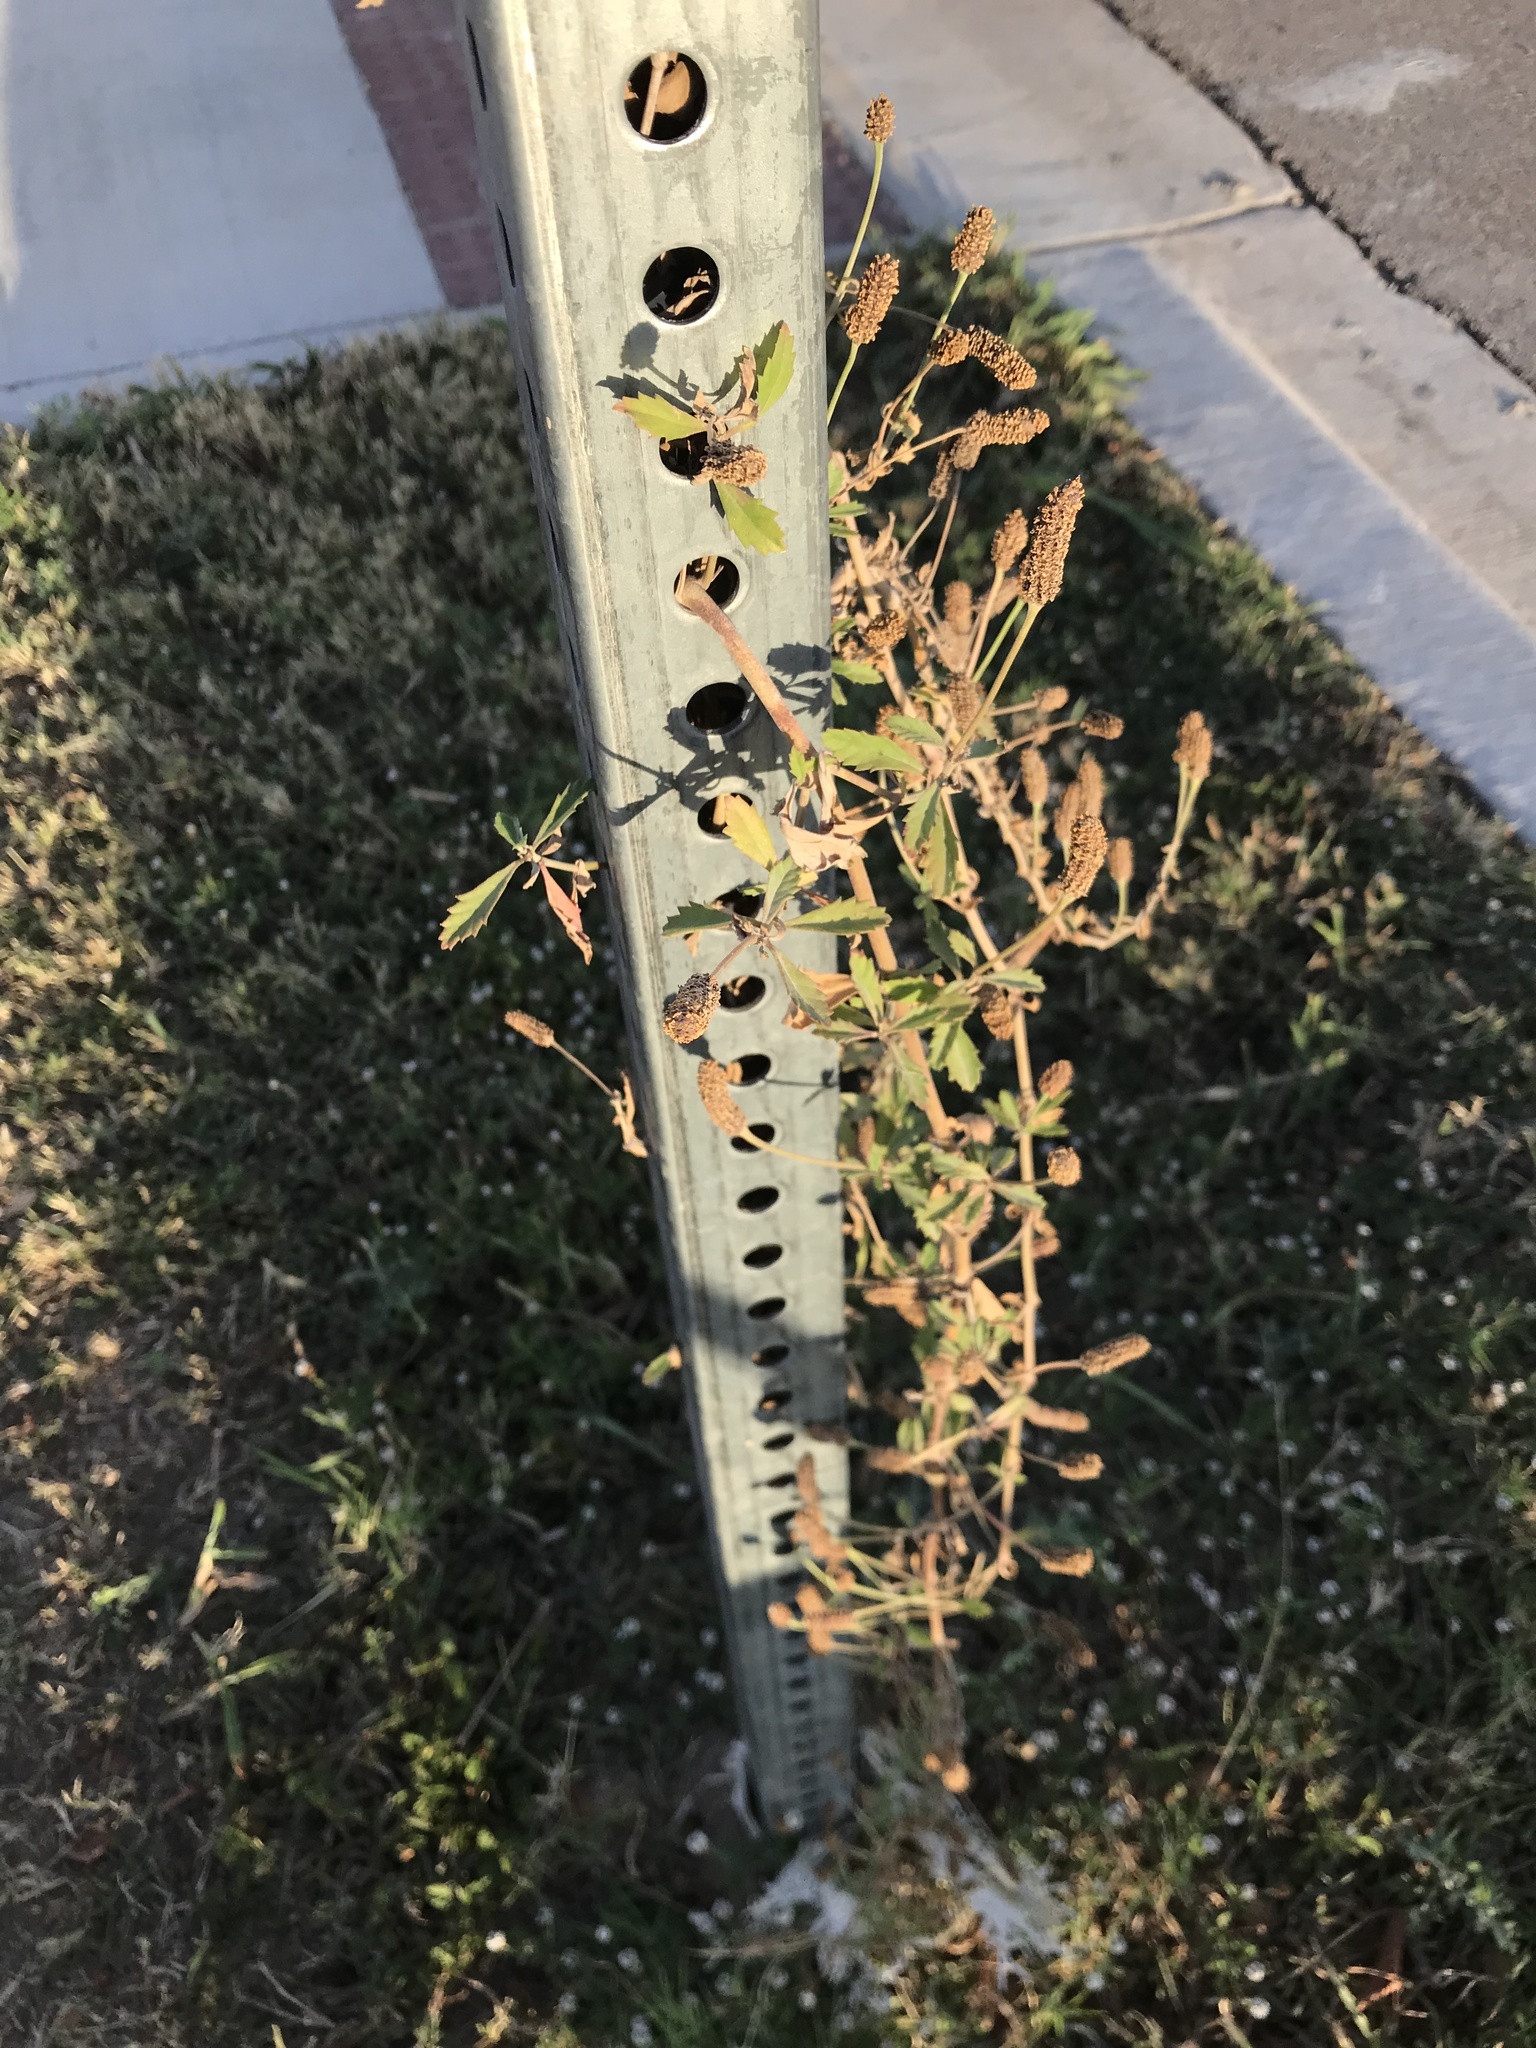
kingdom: Plantae
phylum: Tracheophyta
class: Magnoliopsida
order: Lamiales
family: Verbenaceae
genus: Phyla
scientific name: Phyla nodiflora
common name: Frogfruit
